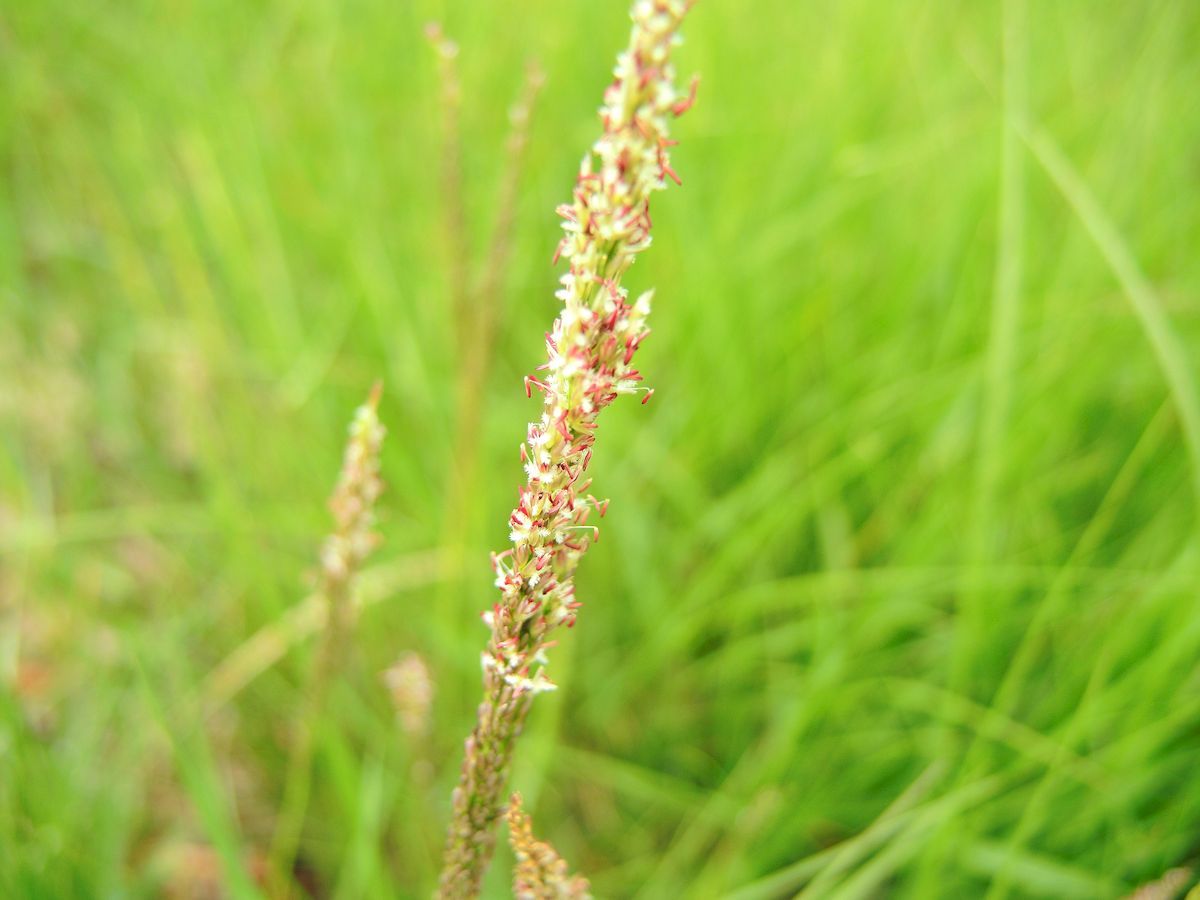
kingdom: Plantae
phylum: Tracheophyta
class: Liliopsida
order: Poales
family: Poaceae
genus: Sporobolus
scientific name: Sporobolus virginicus
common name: Beach dropseed
